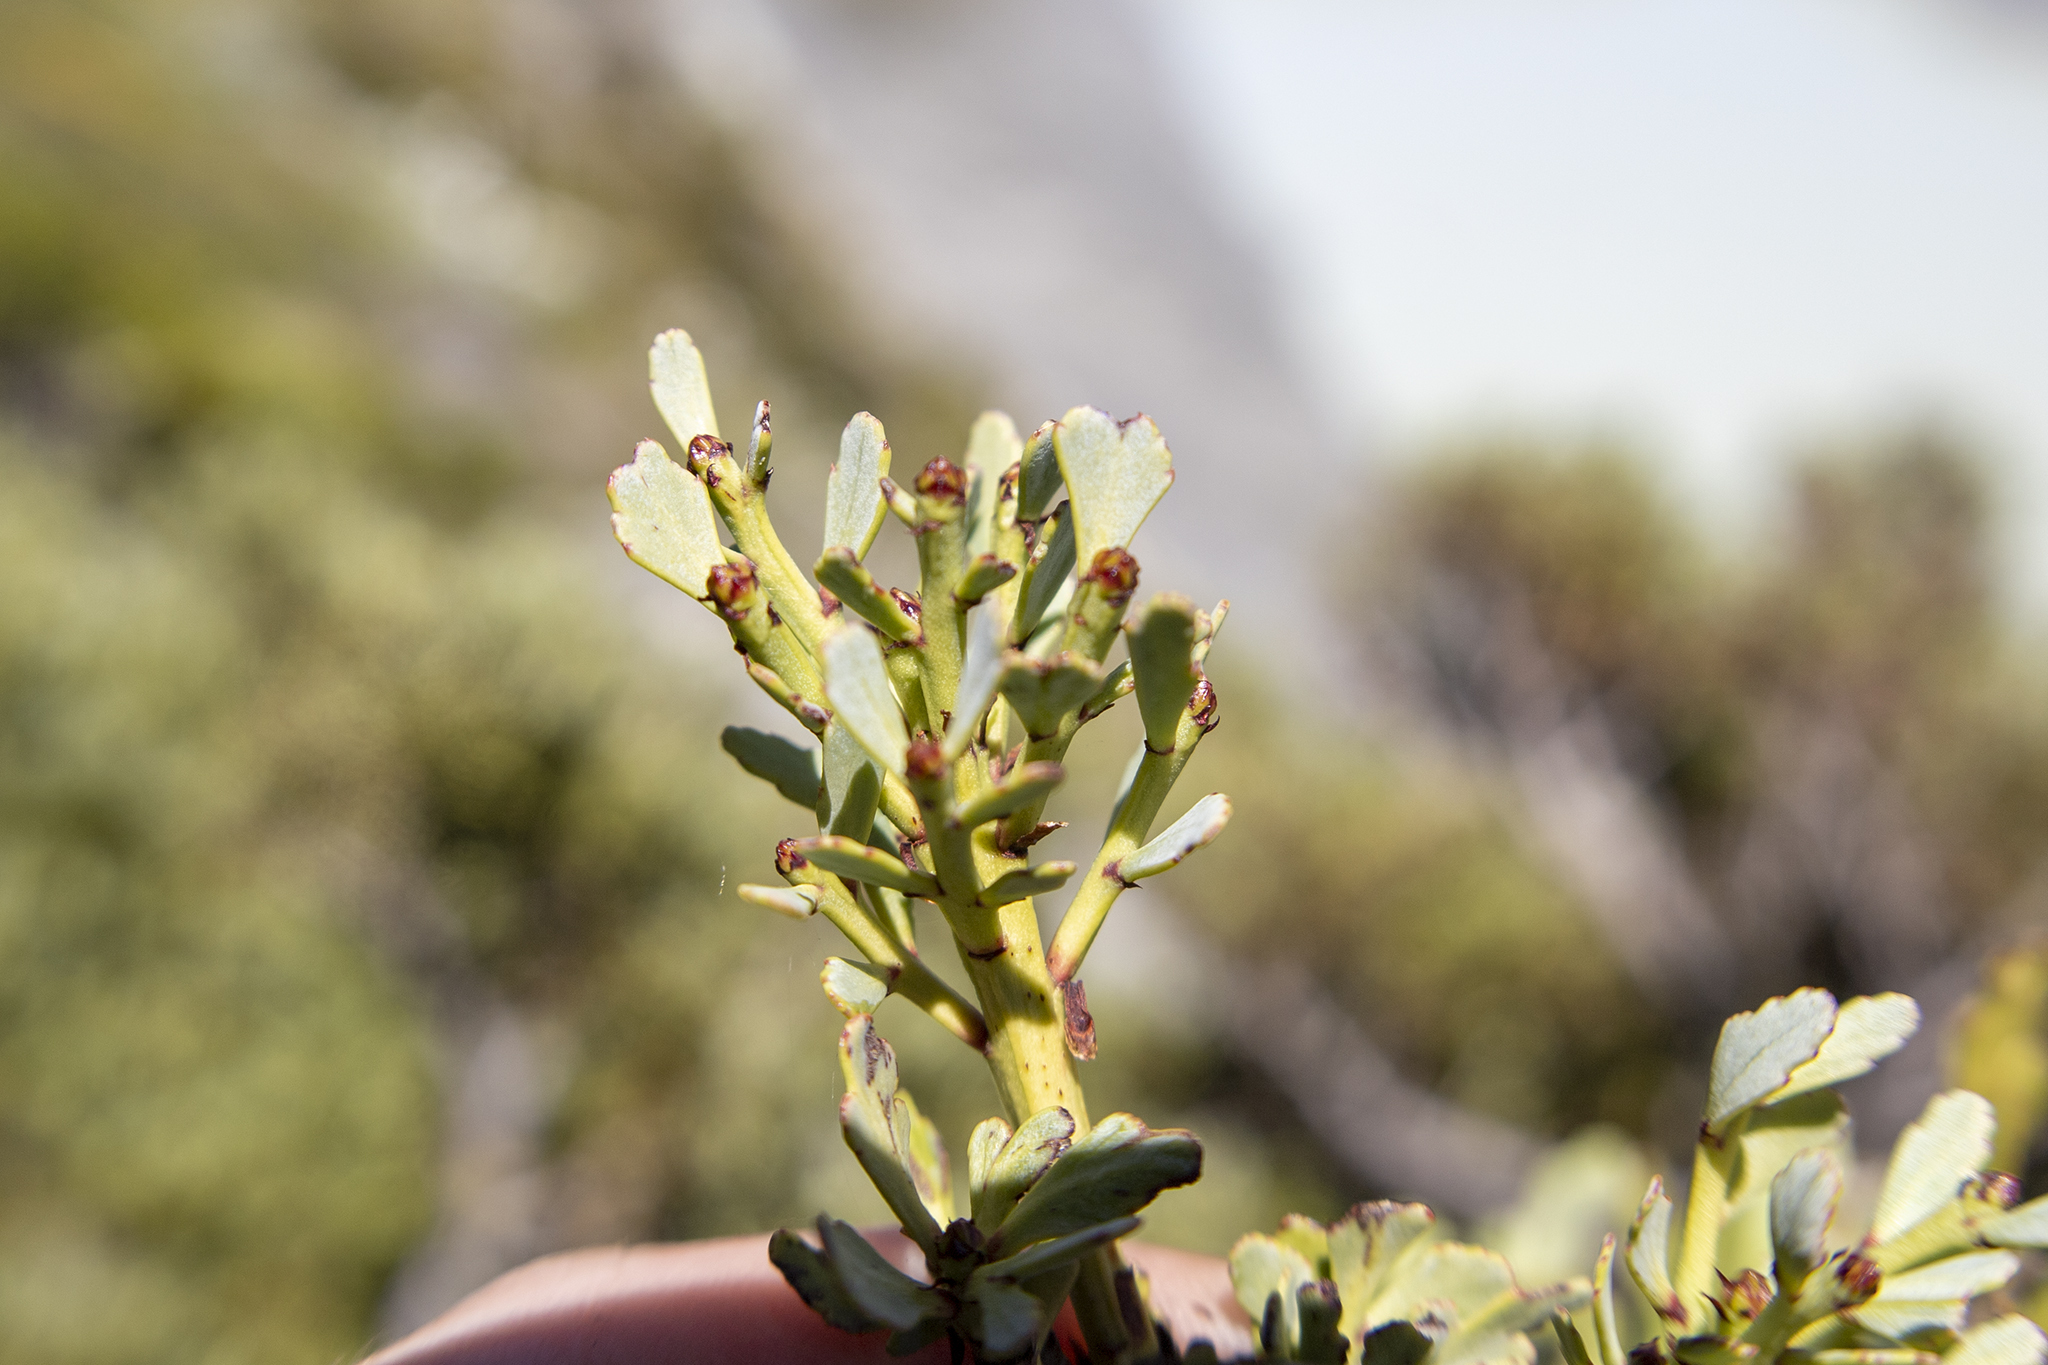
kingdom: Plantae
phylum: Tracheophyta
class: Pinopsida
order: Pinales
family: Phyllocladaceae
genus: Phyllocladus
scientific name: Phyllocladus trichomanoides
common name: Celery pine
